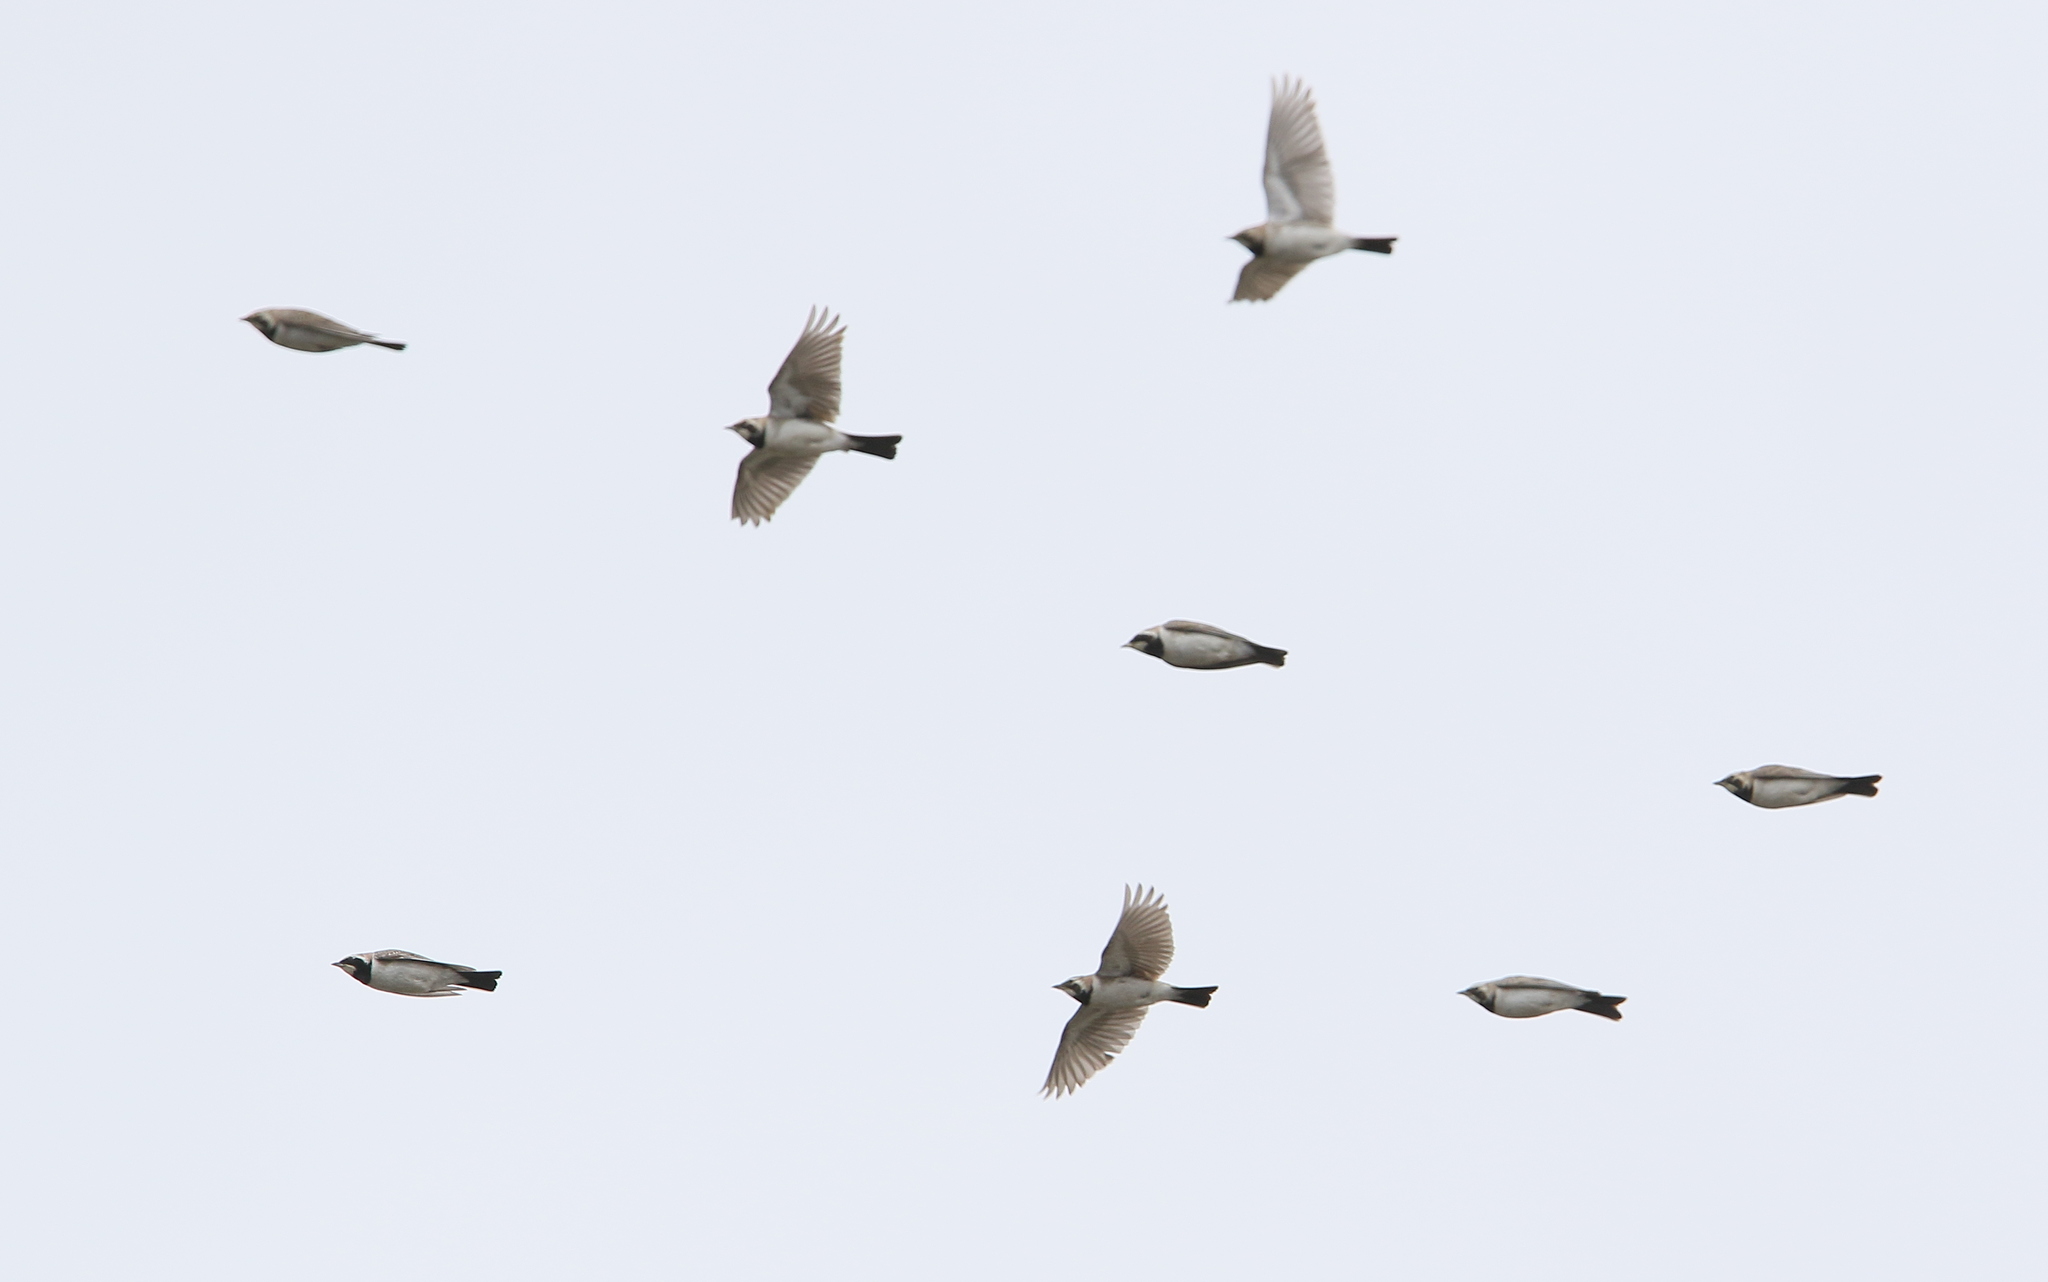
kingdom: Animalia
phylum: Chordata
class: Aves
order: Passeriformes
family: Alaudidae
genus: Eremophila
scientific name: Eremophila alpestris
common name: Horned lark
